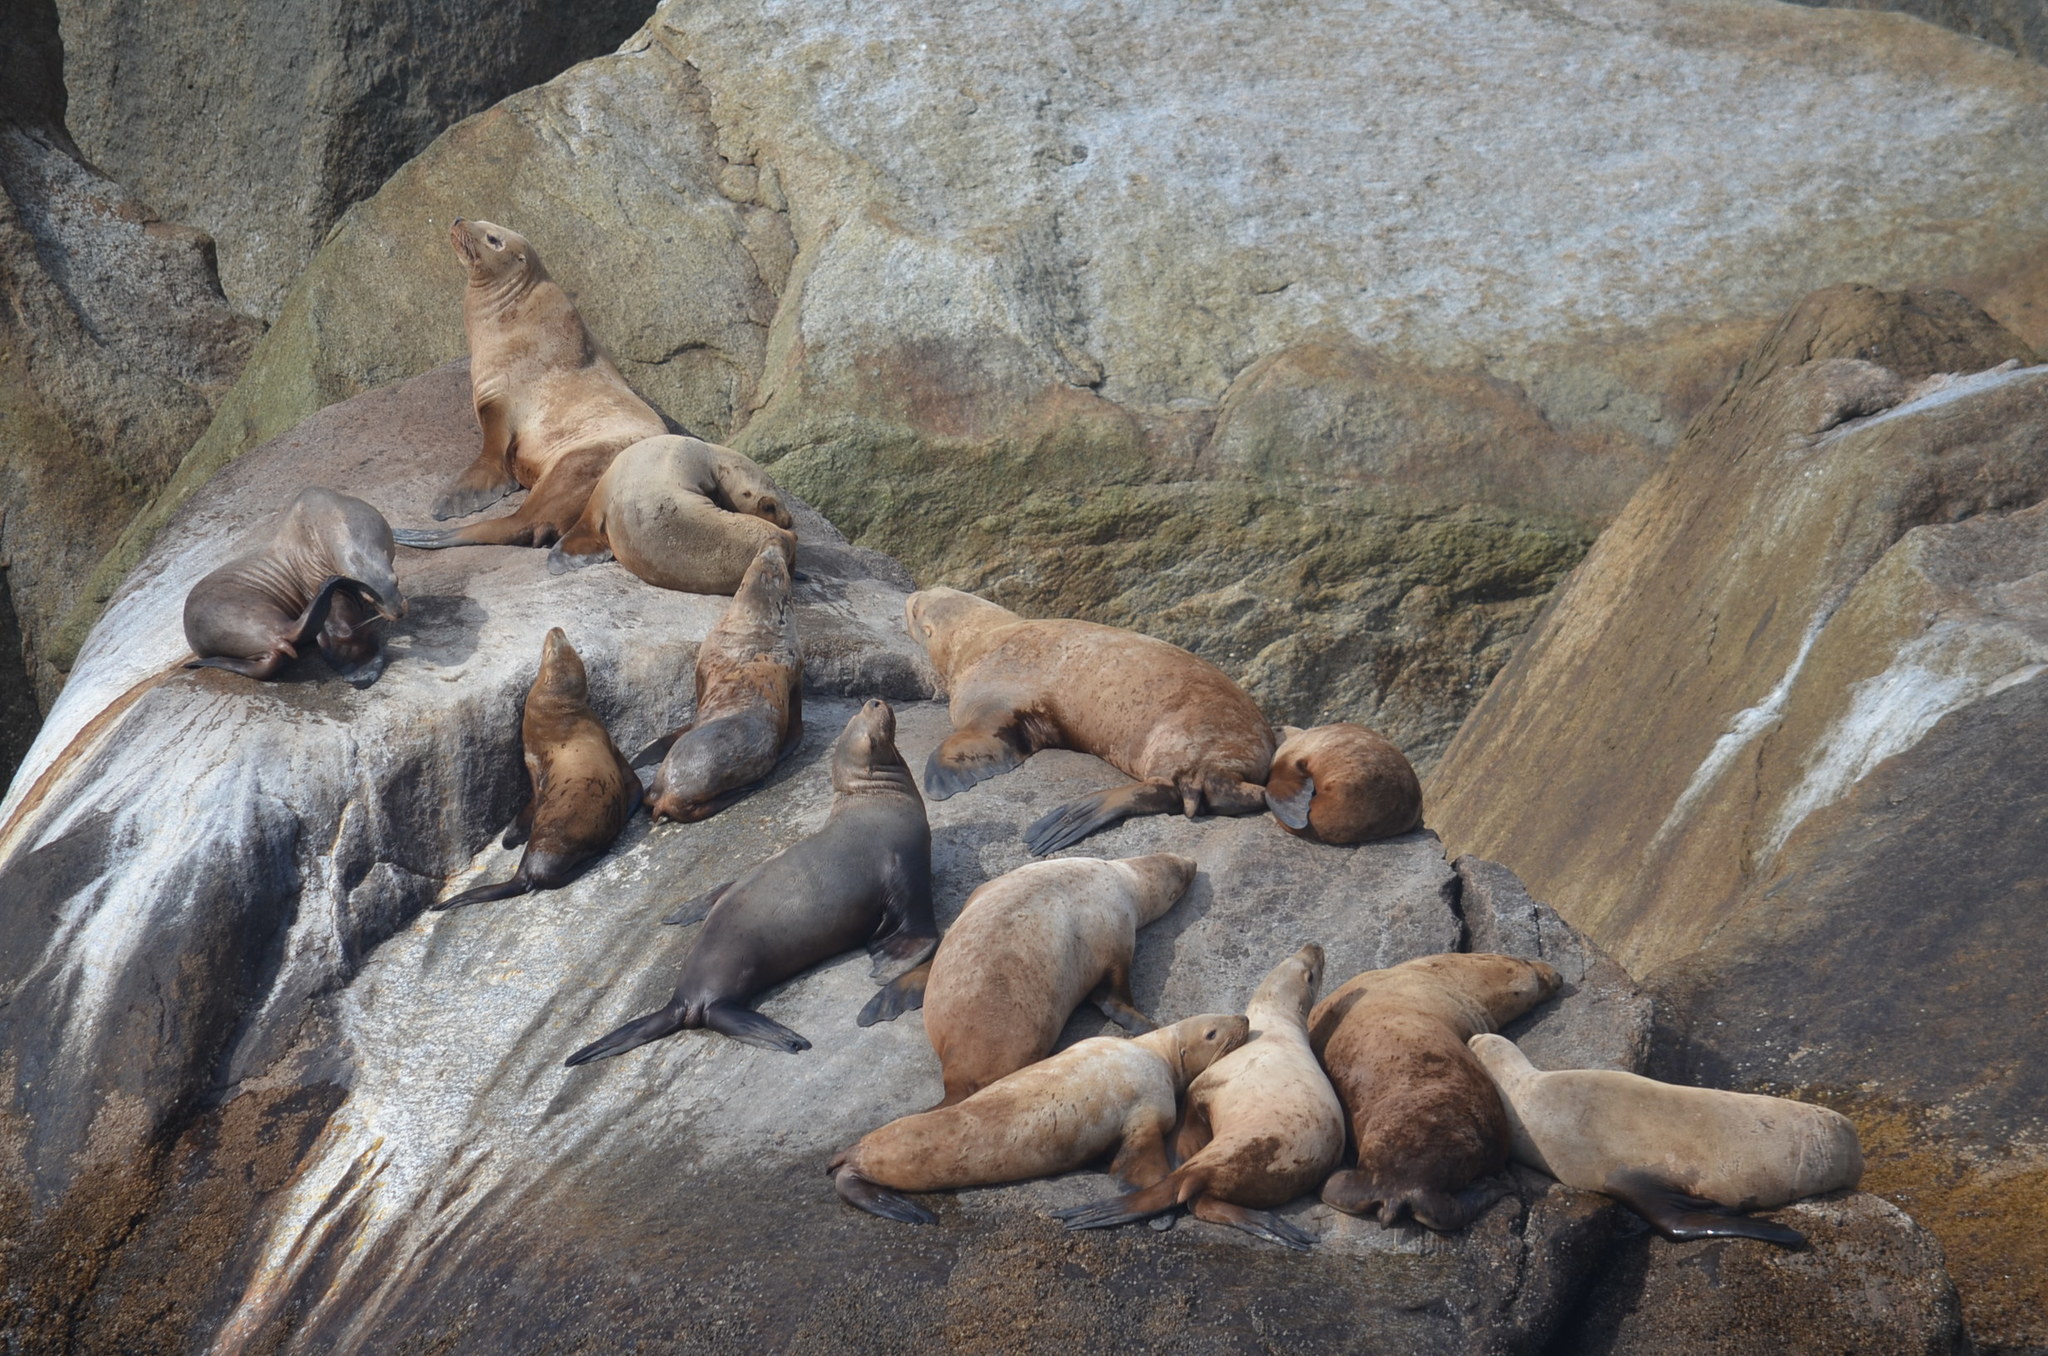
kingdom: Animalia
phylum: Chordata
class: Mammalia
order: Carnivora
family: Otariidae
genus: Eumetopias
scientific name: Eumetopias jubatus
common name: Steller sea lion
